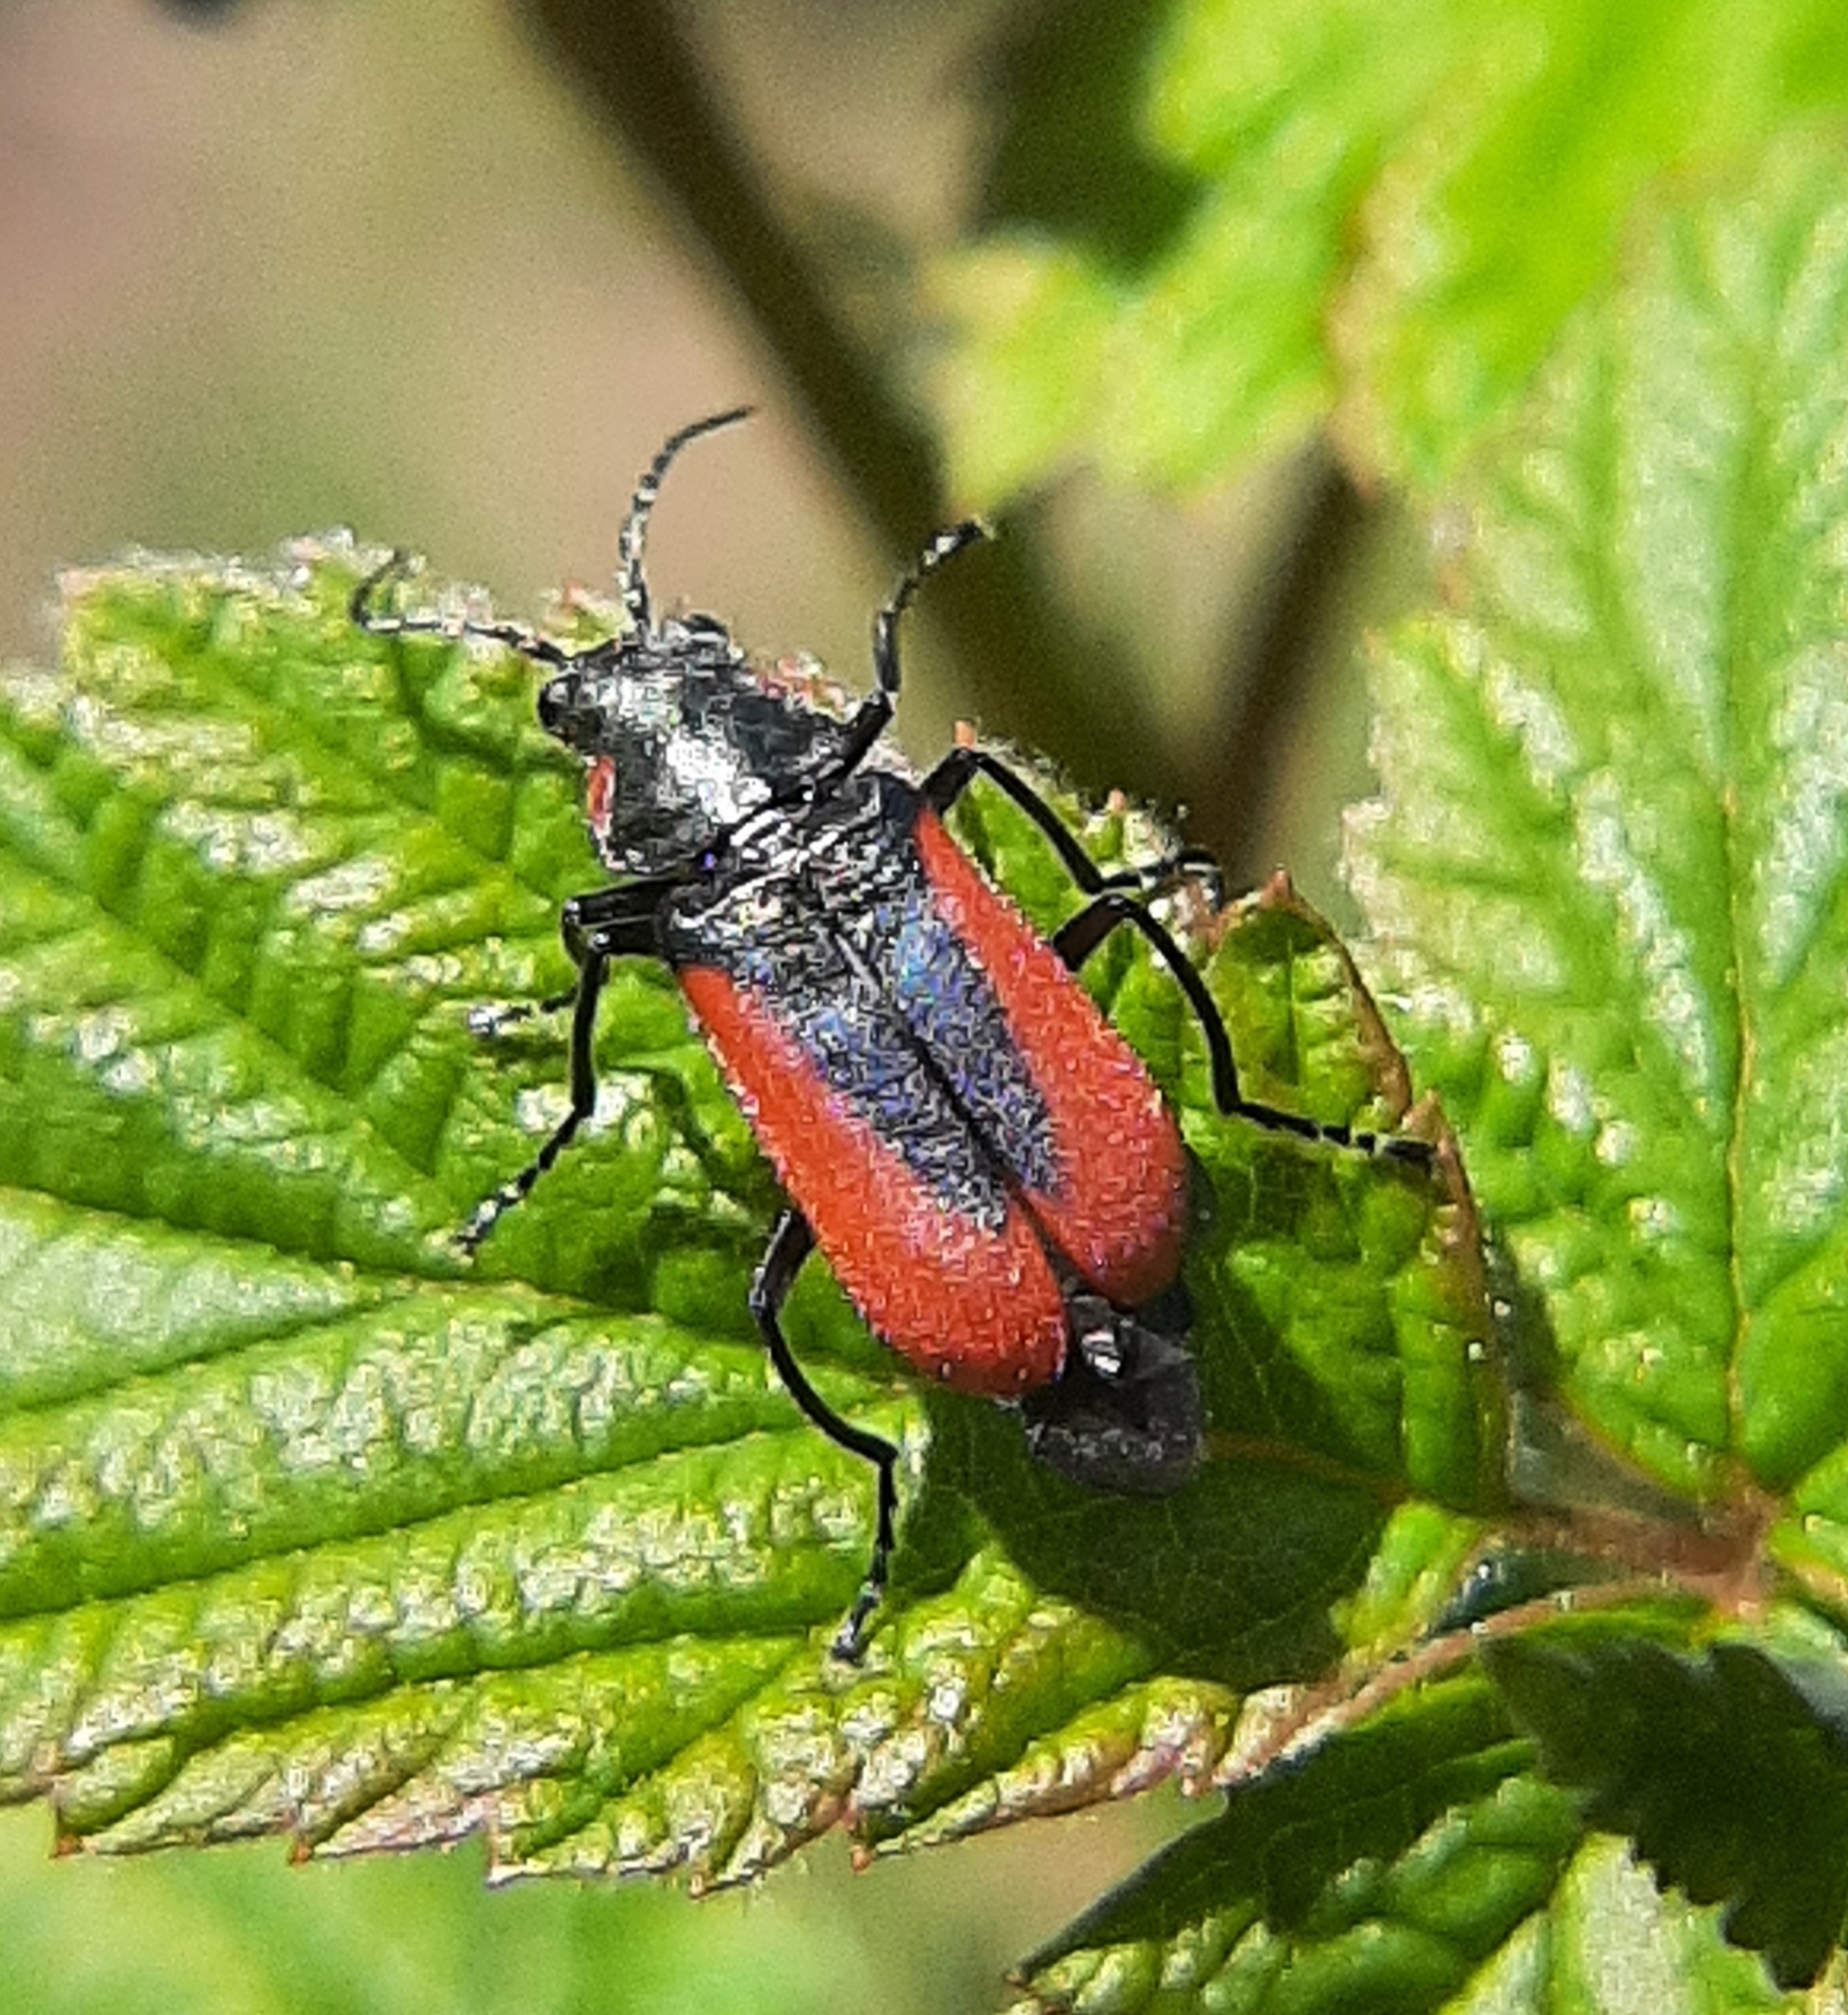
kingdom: Animalia
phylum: Arthropoda
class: Insecta
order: Coleoptera
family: Melyridae
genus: Malachius
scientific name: Malachius aeneus
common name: Scarlet malachite beetle
